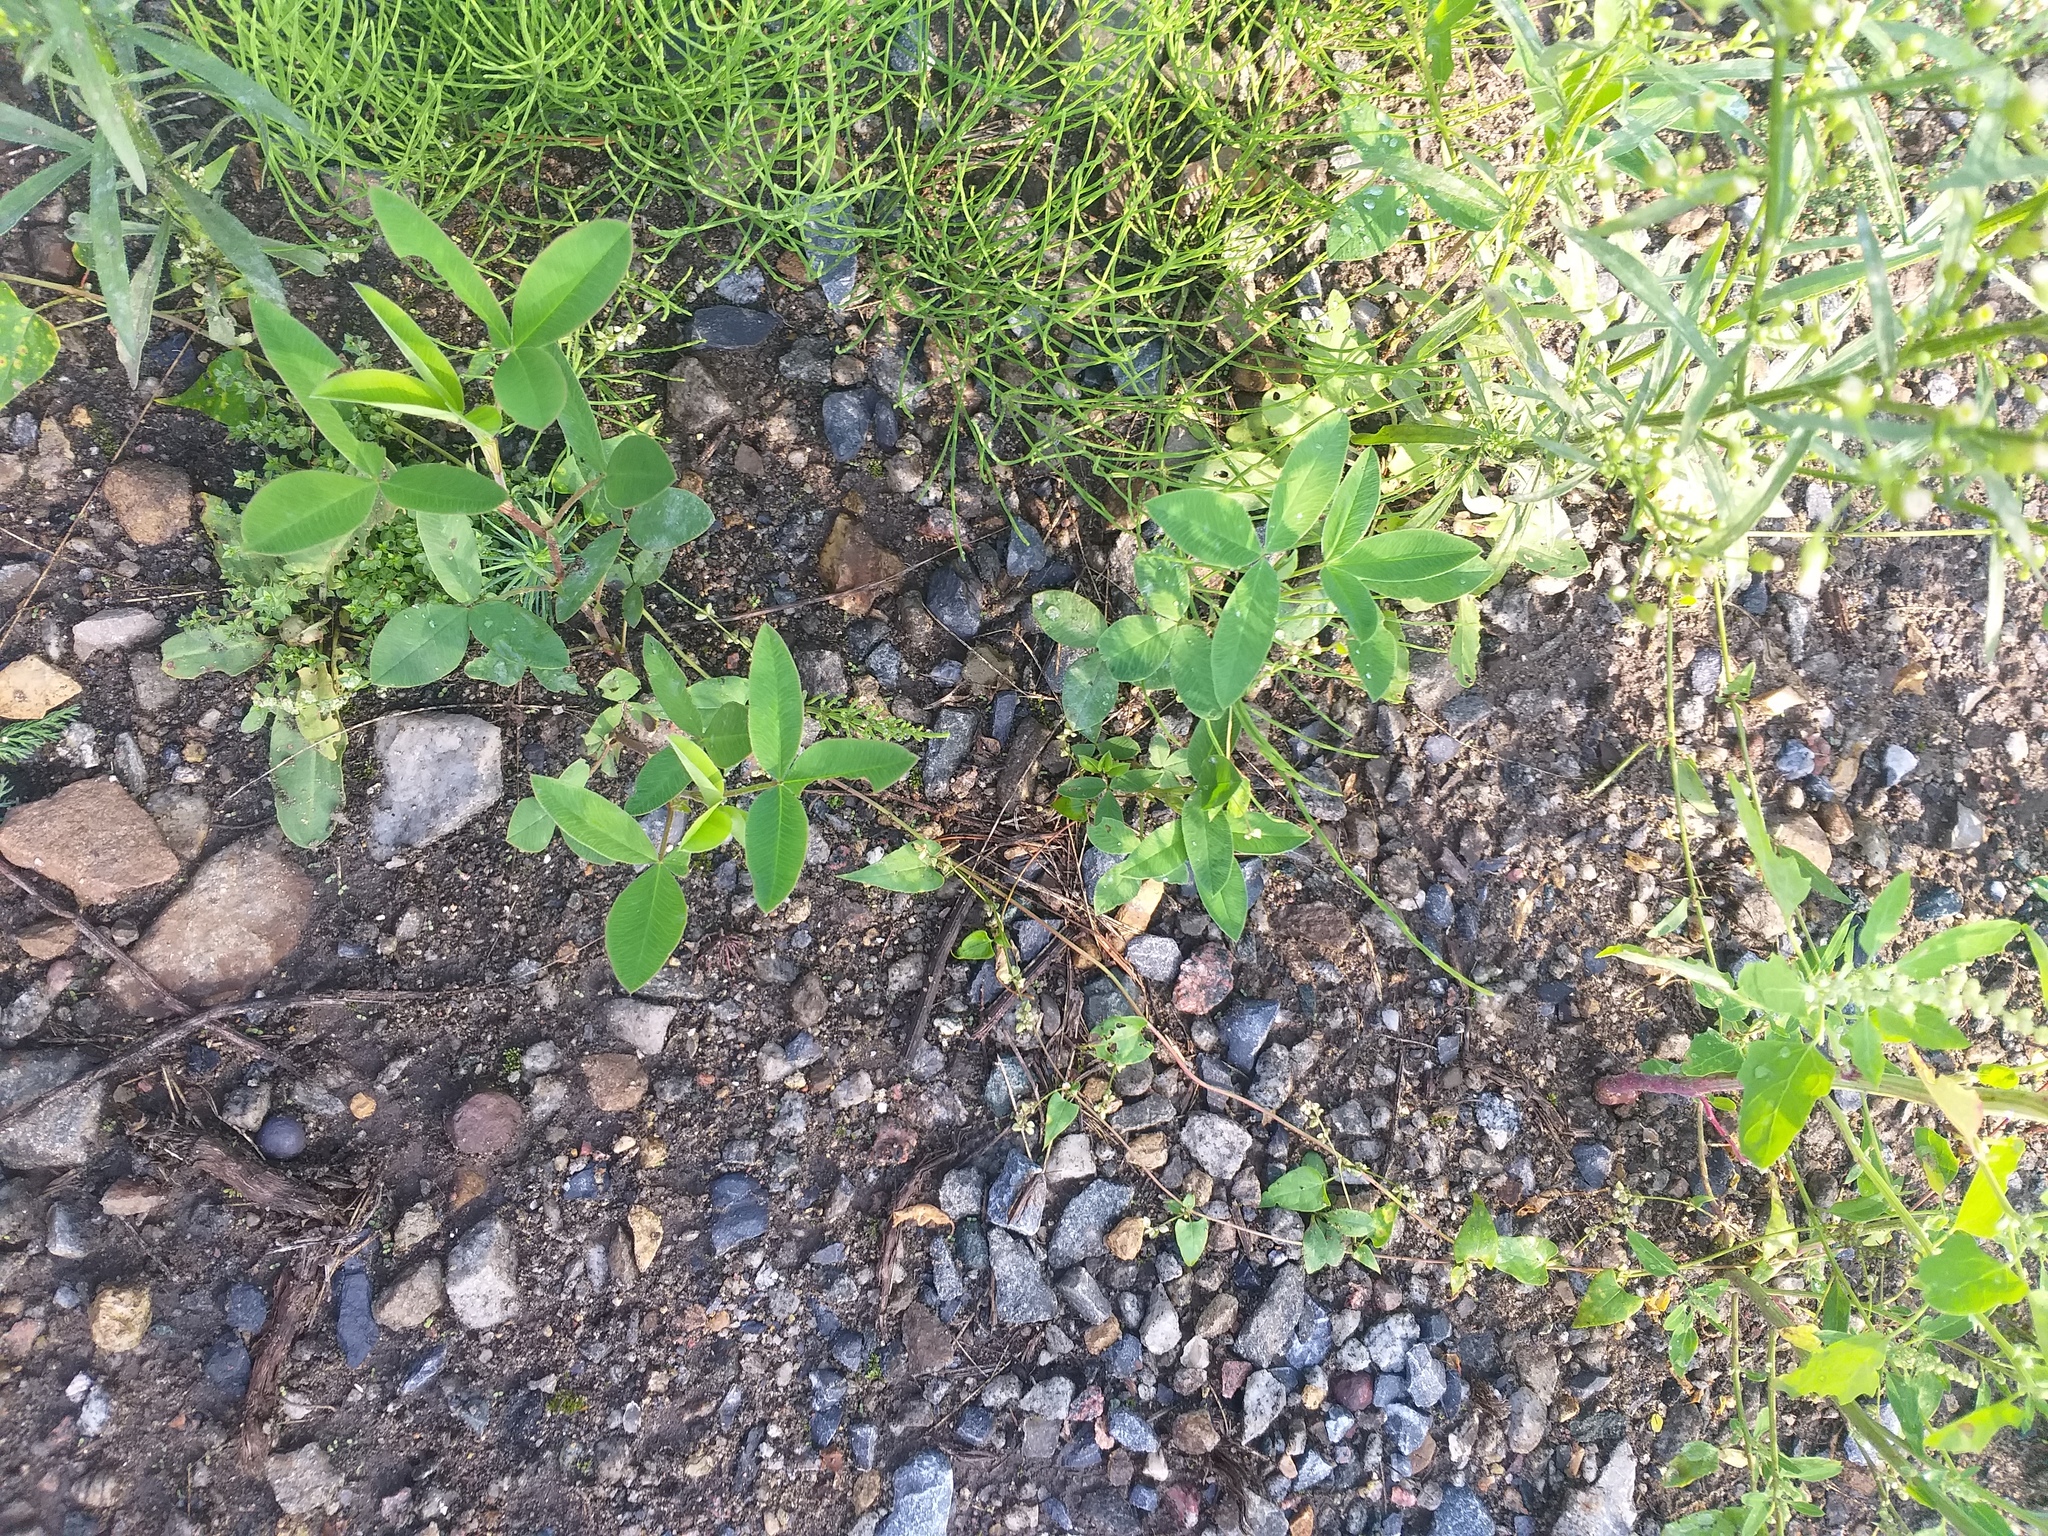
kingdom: Plantae
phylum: Tracheophyta
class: Magnoliopsida
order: Fabales
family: Fabaceae
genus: Trifolium
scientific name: Trifolium medium
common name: Zigzag clover
